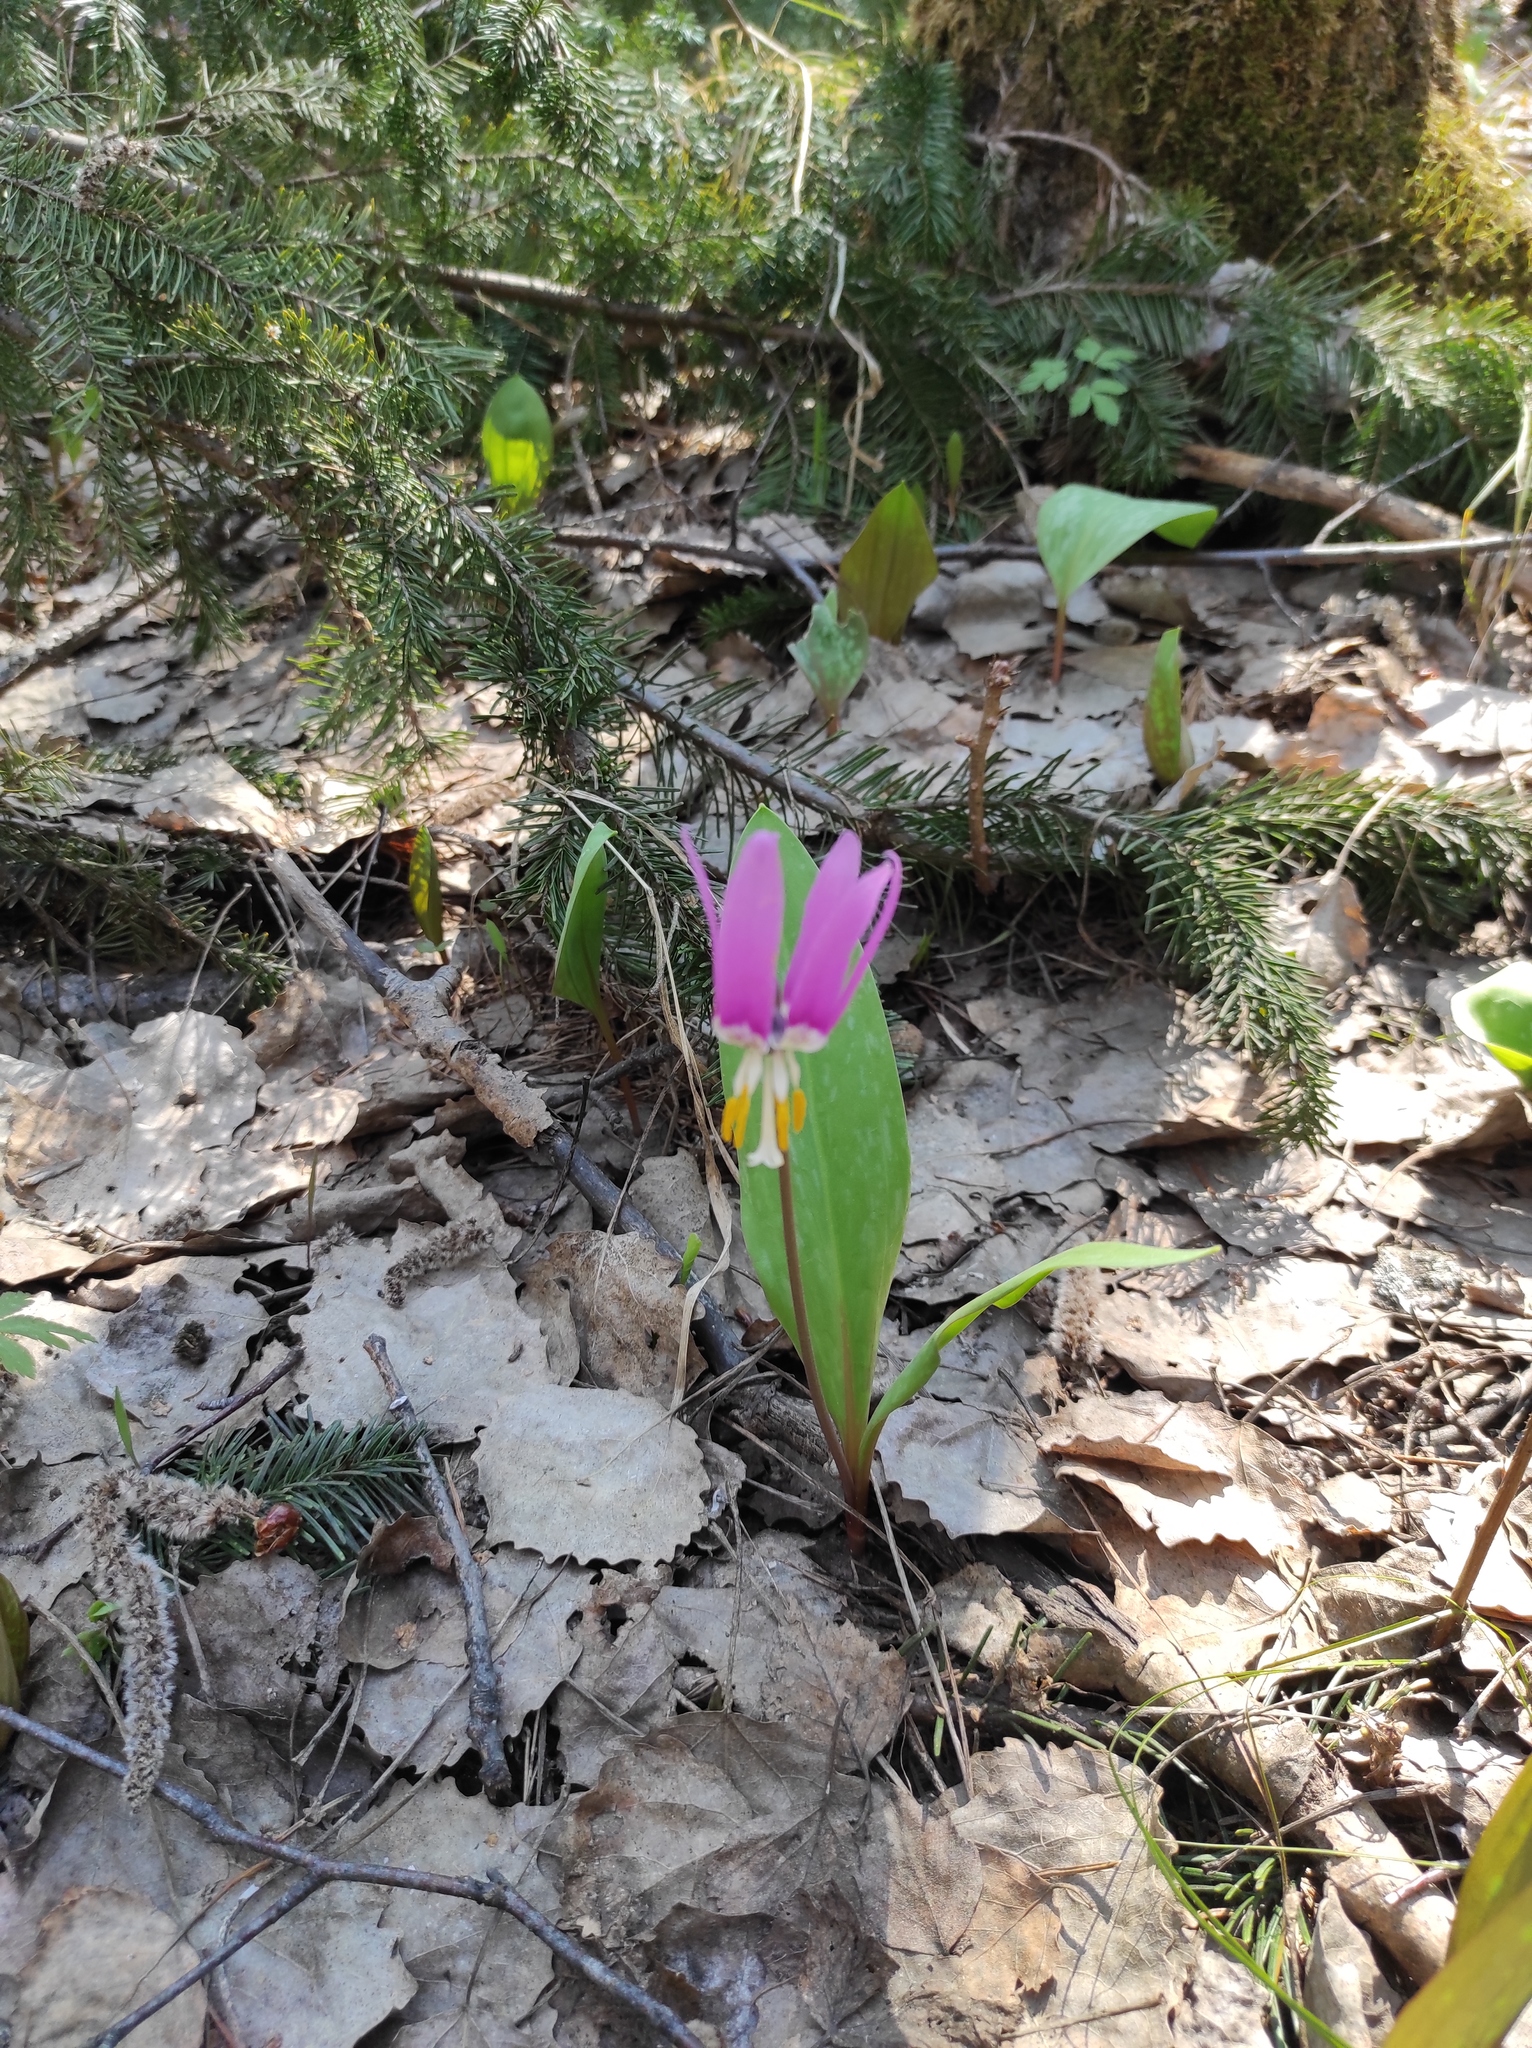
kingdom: Plantae
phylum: Tracheophyta
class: Liliopsida
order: Liliales
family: Liliaceae
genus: Erythronium
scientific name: Erythronium sibiricum
